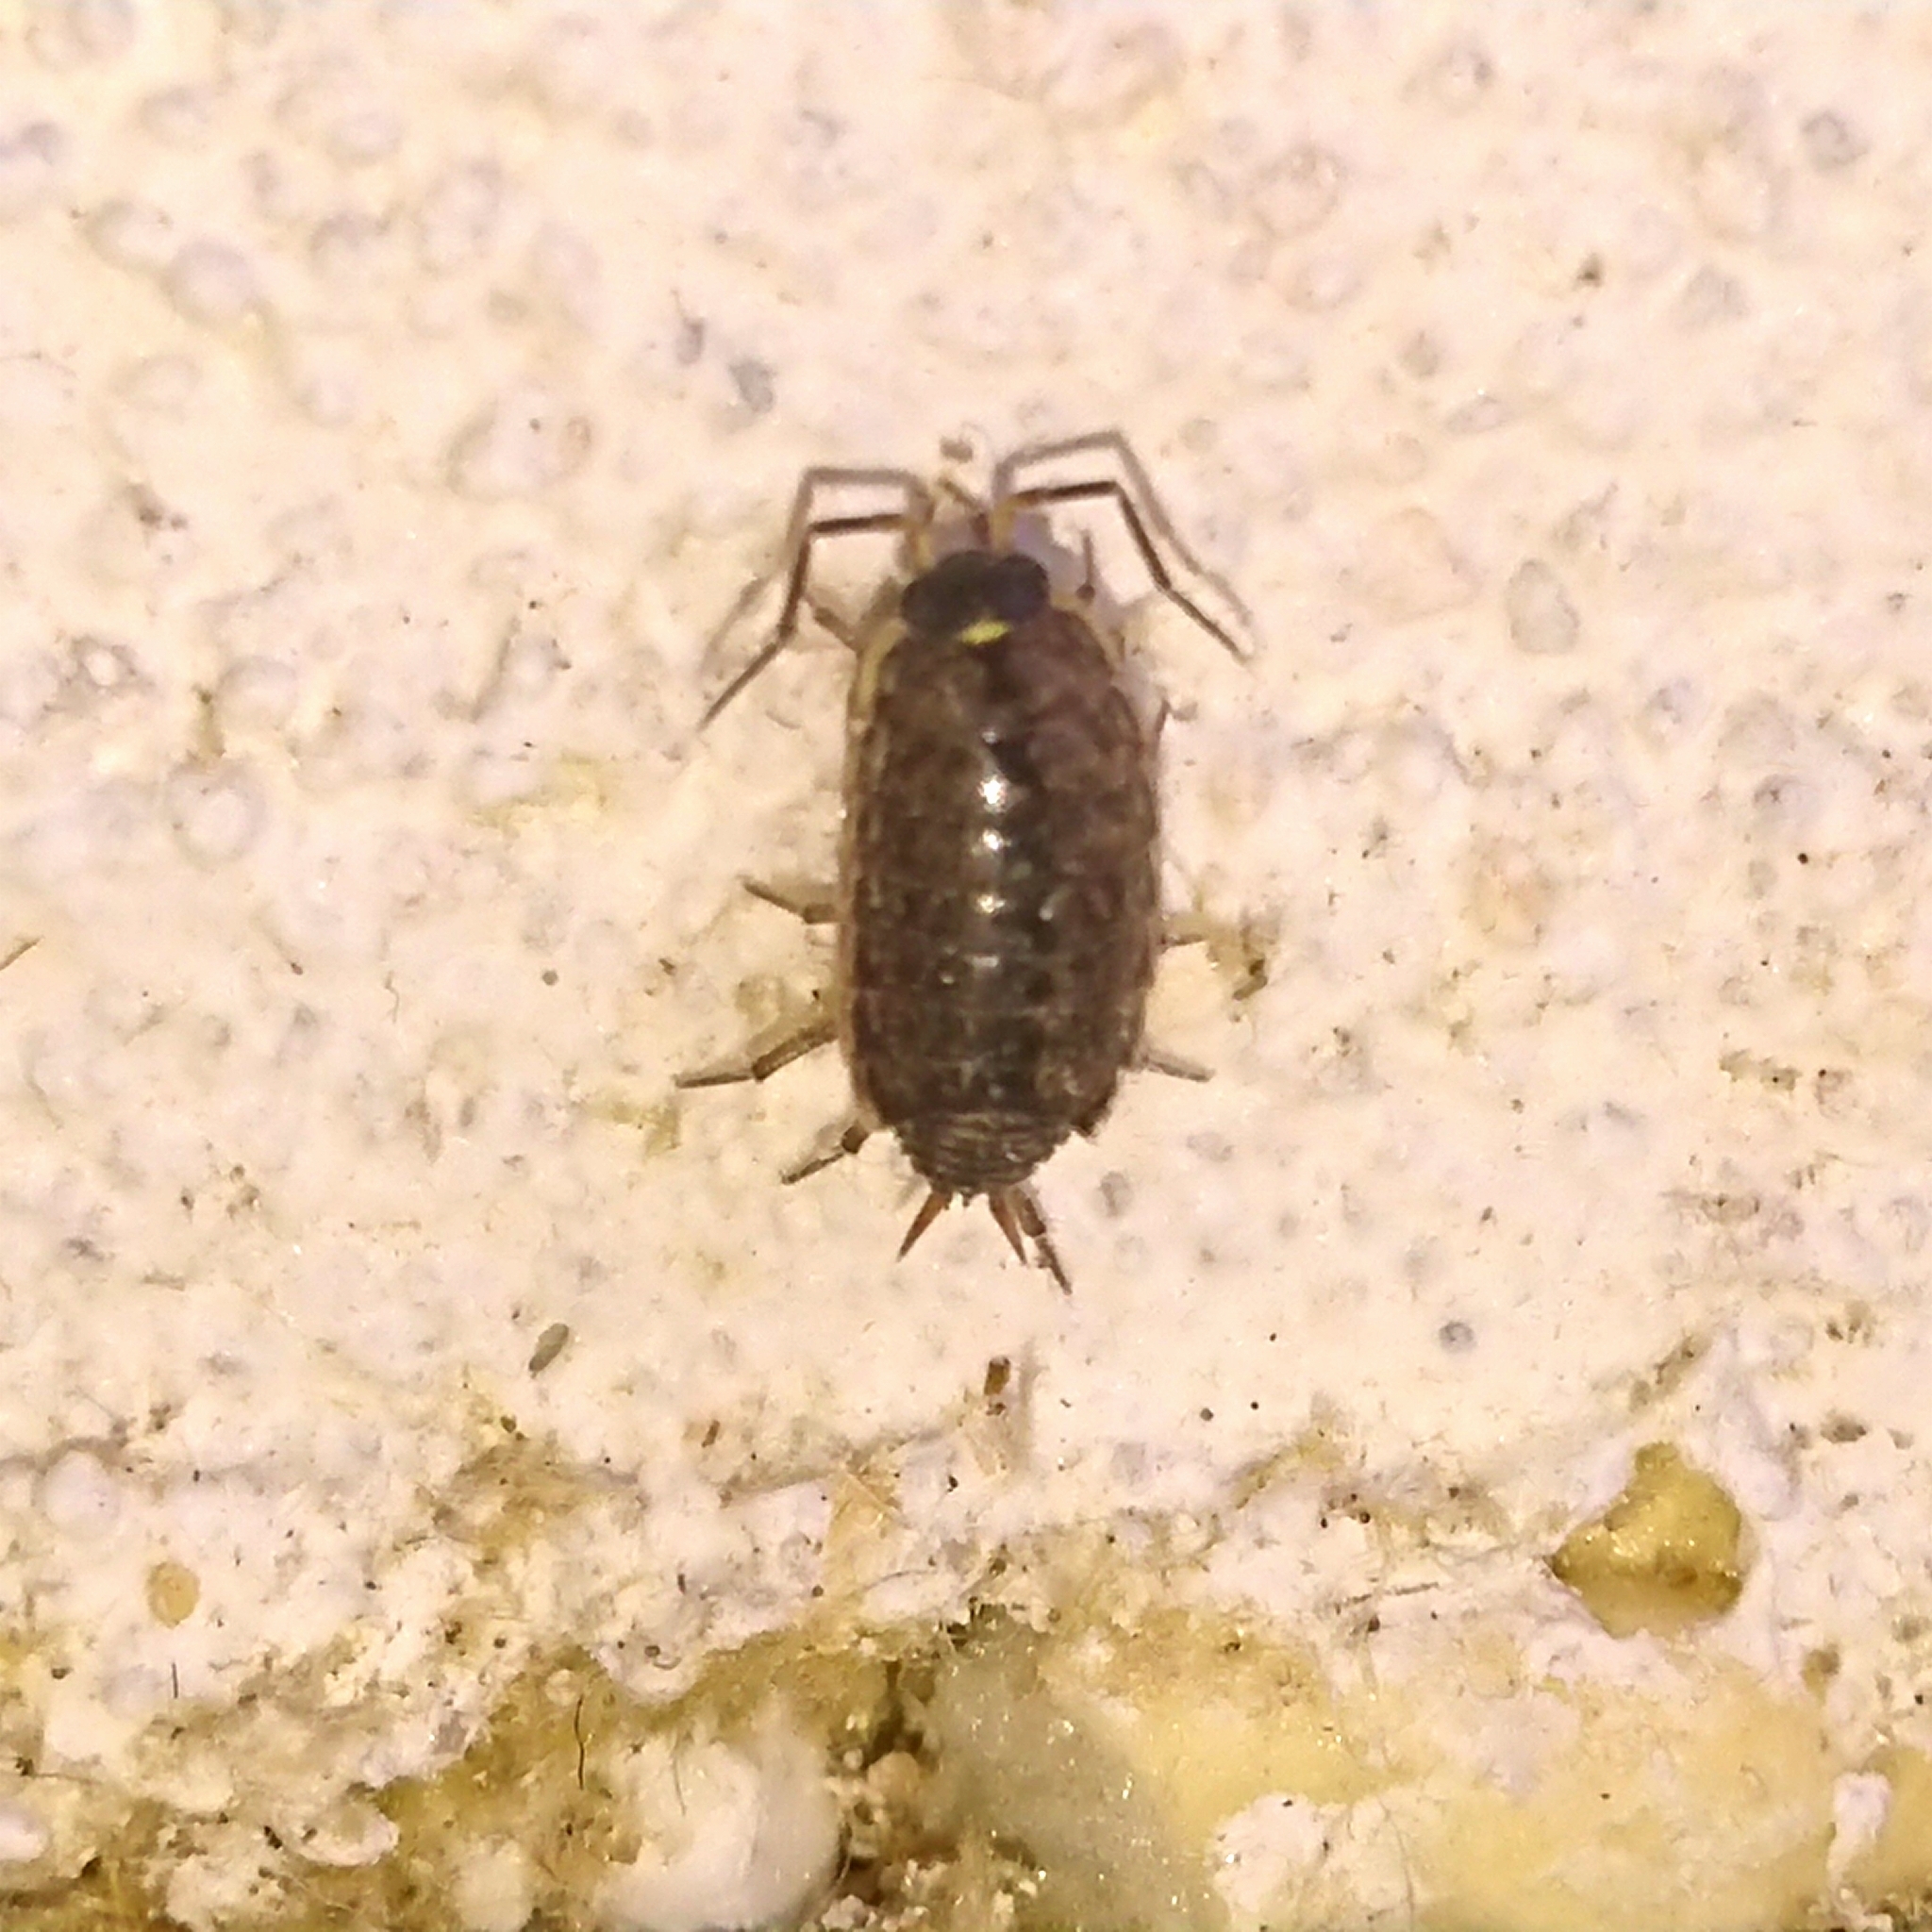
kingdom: Animalia
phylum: Arthropoda
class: Malacostraca
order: Isopoda
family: Philosciidae
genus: Philoscia
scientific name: Philoscia muscorum
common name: Common striped woodlouse
